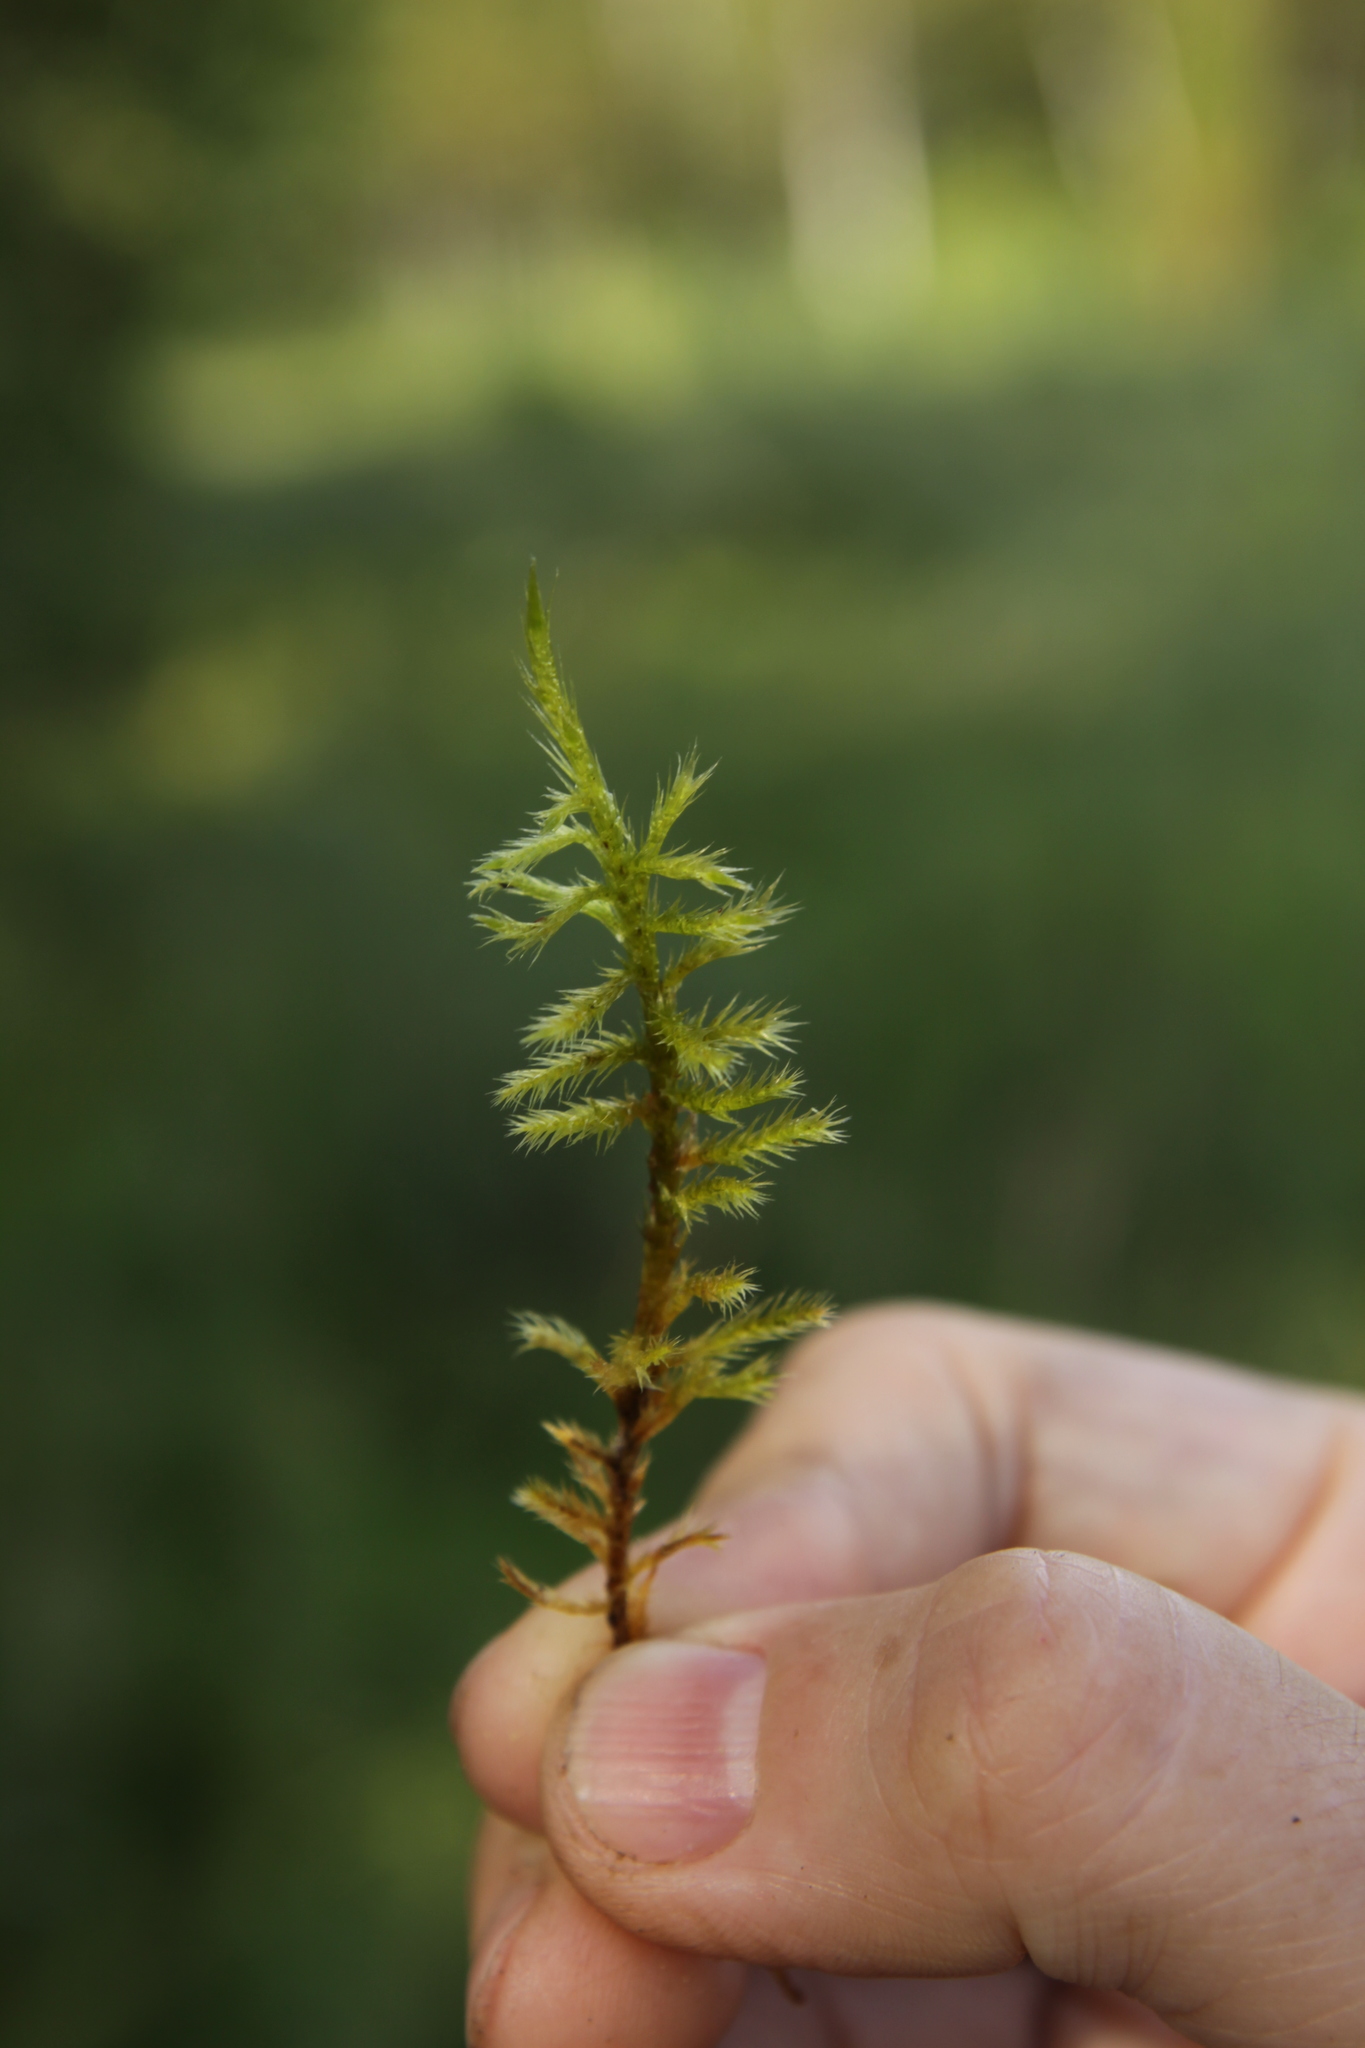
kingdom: Plantae
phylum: Bryophyta
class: Bryopsida
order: Hypnales
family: Amblystegiaceae
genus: Tomentypnum
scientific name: Tomentypnum nitens
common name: Golden fuzzy fen moss
